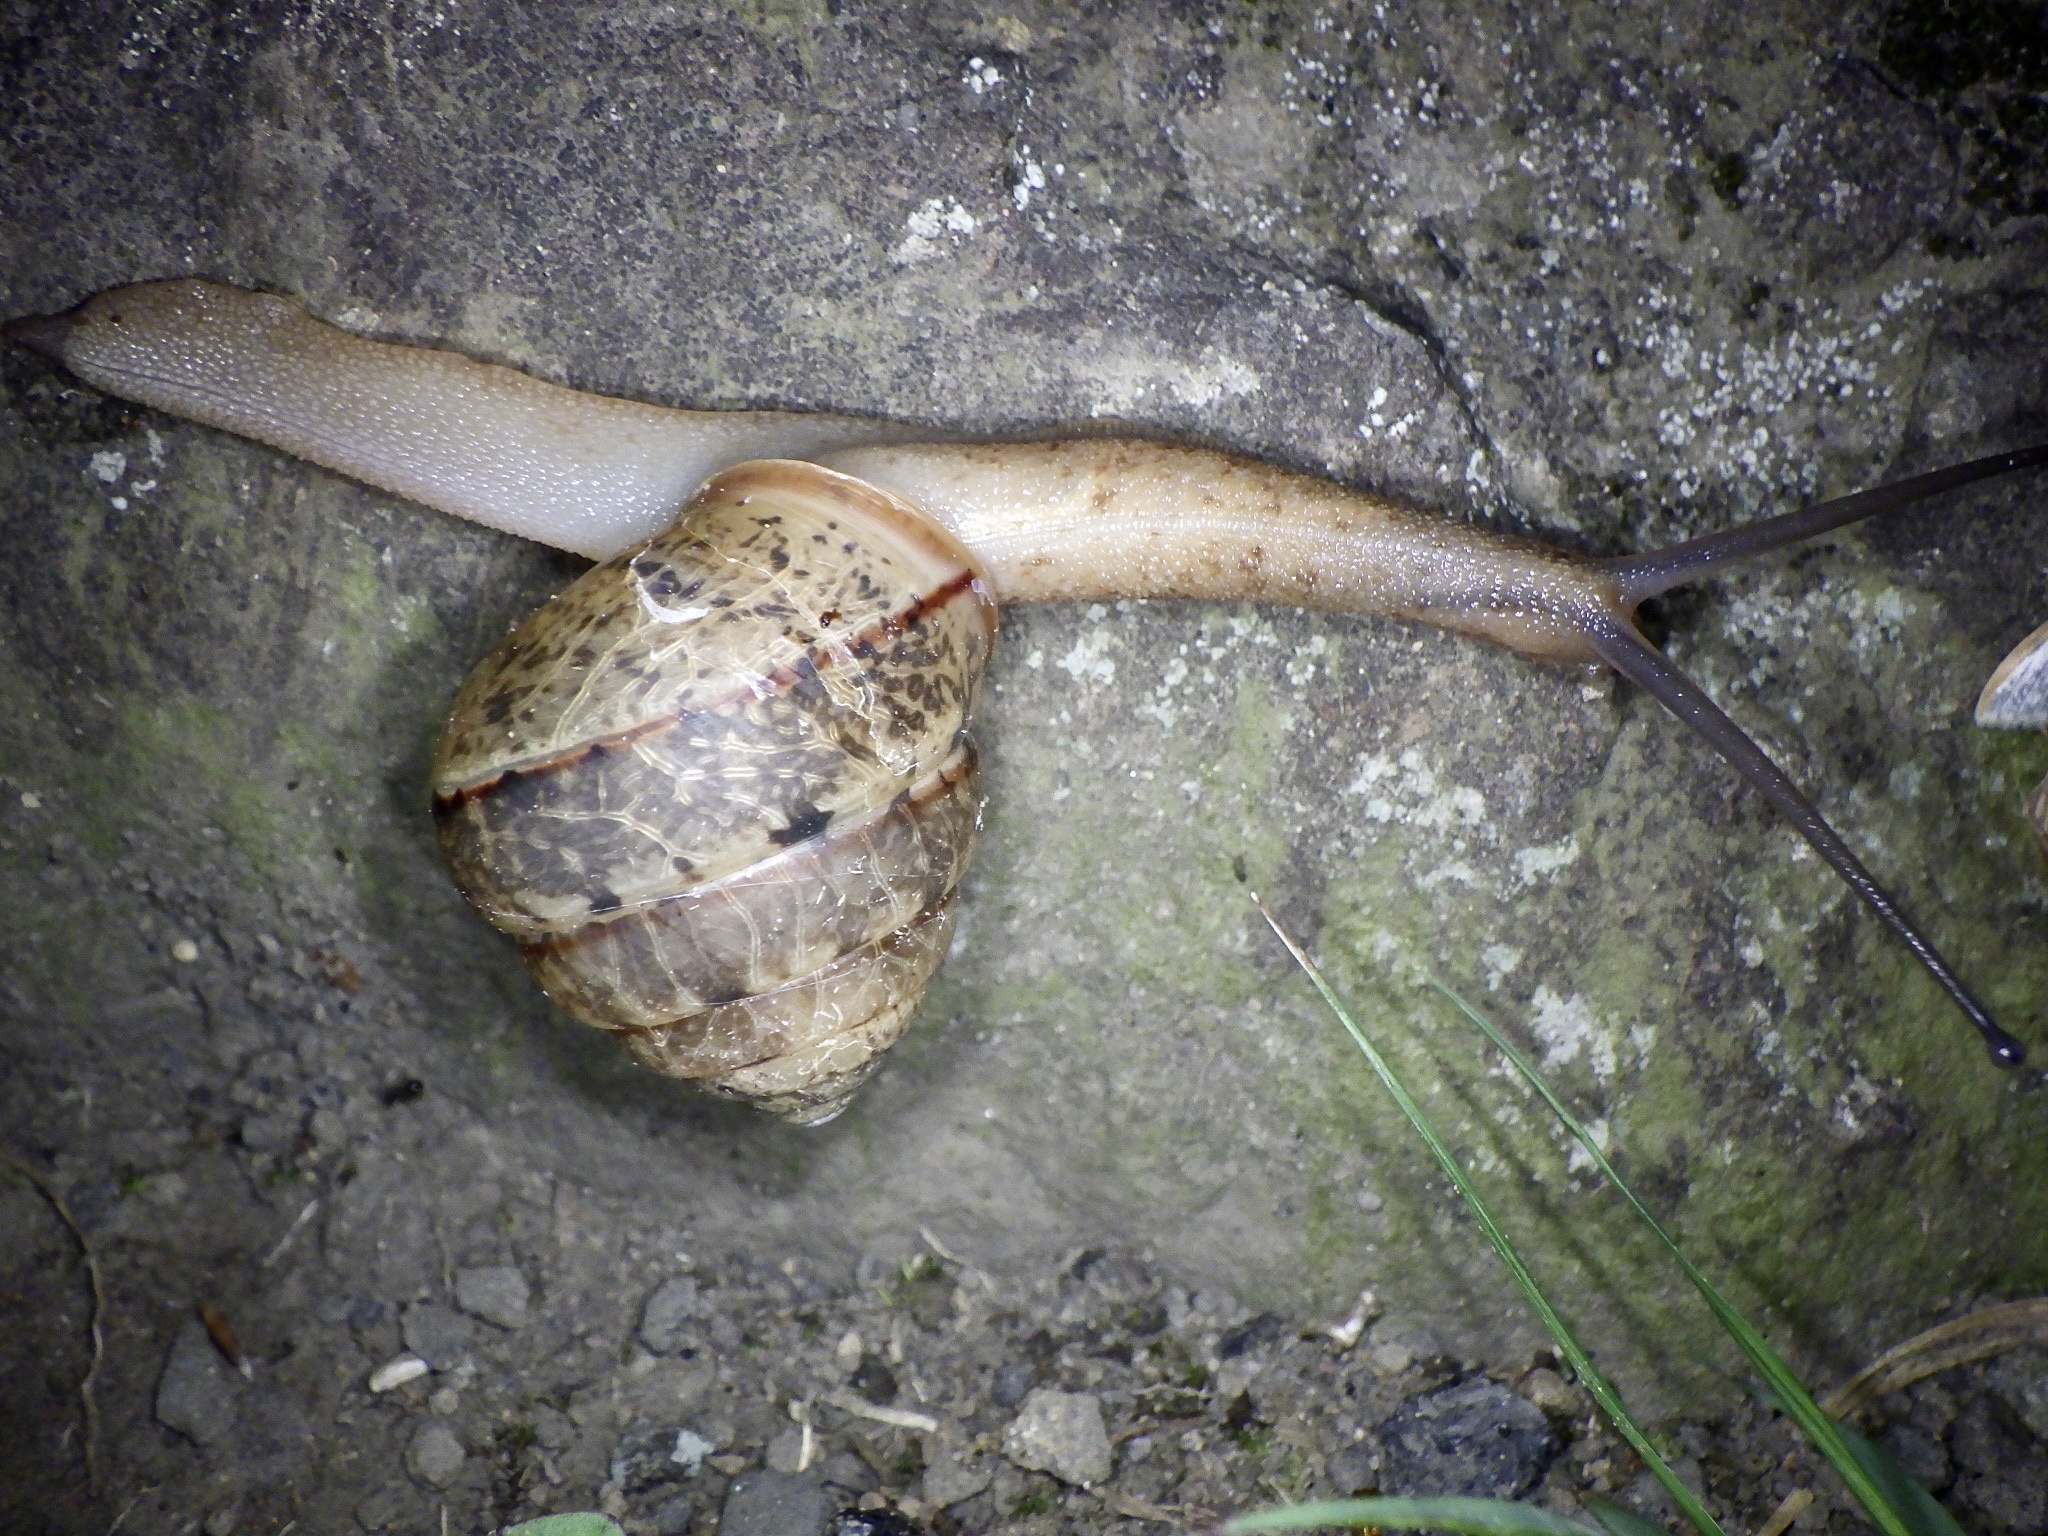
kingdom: Animalia
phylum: Mollusca
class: Gastropoda
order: Stylommatophora
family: Camaenidae
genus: Satsuma
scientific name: Satsuma papilliformis
